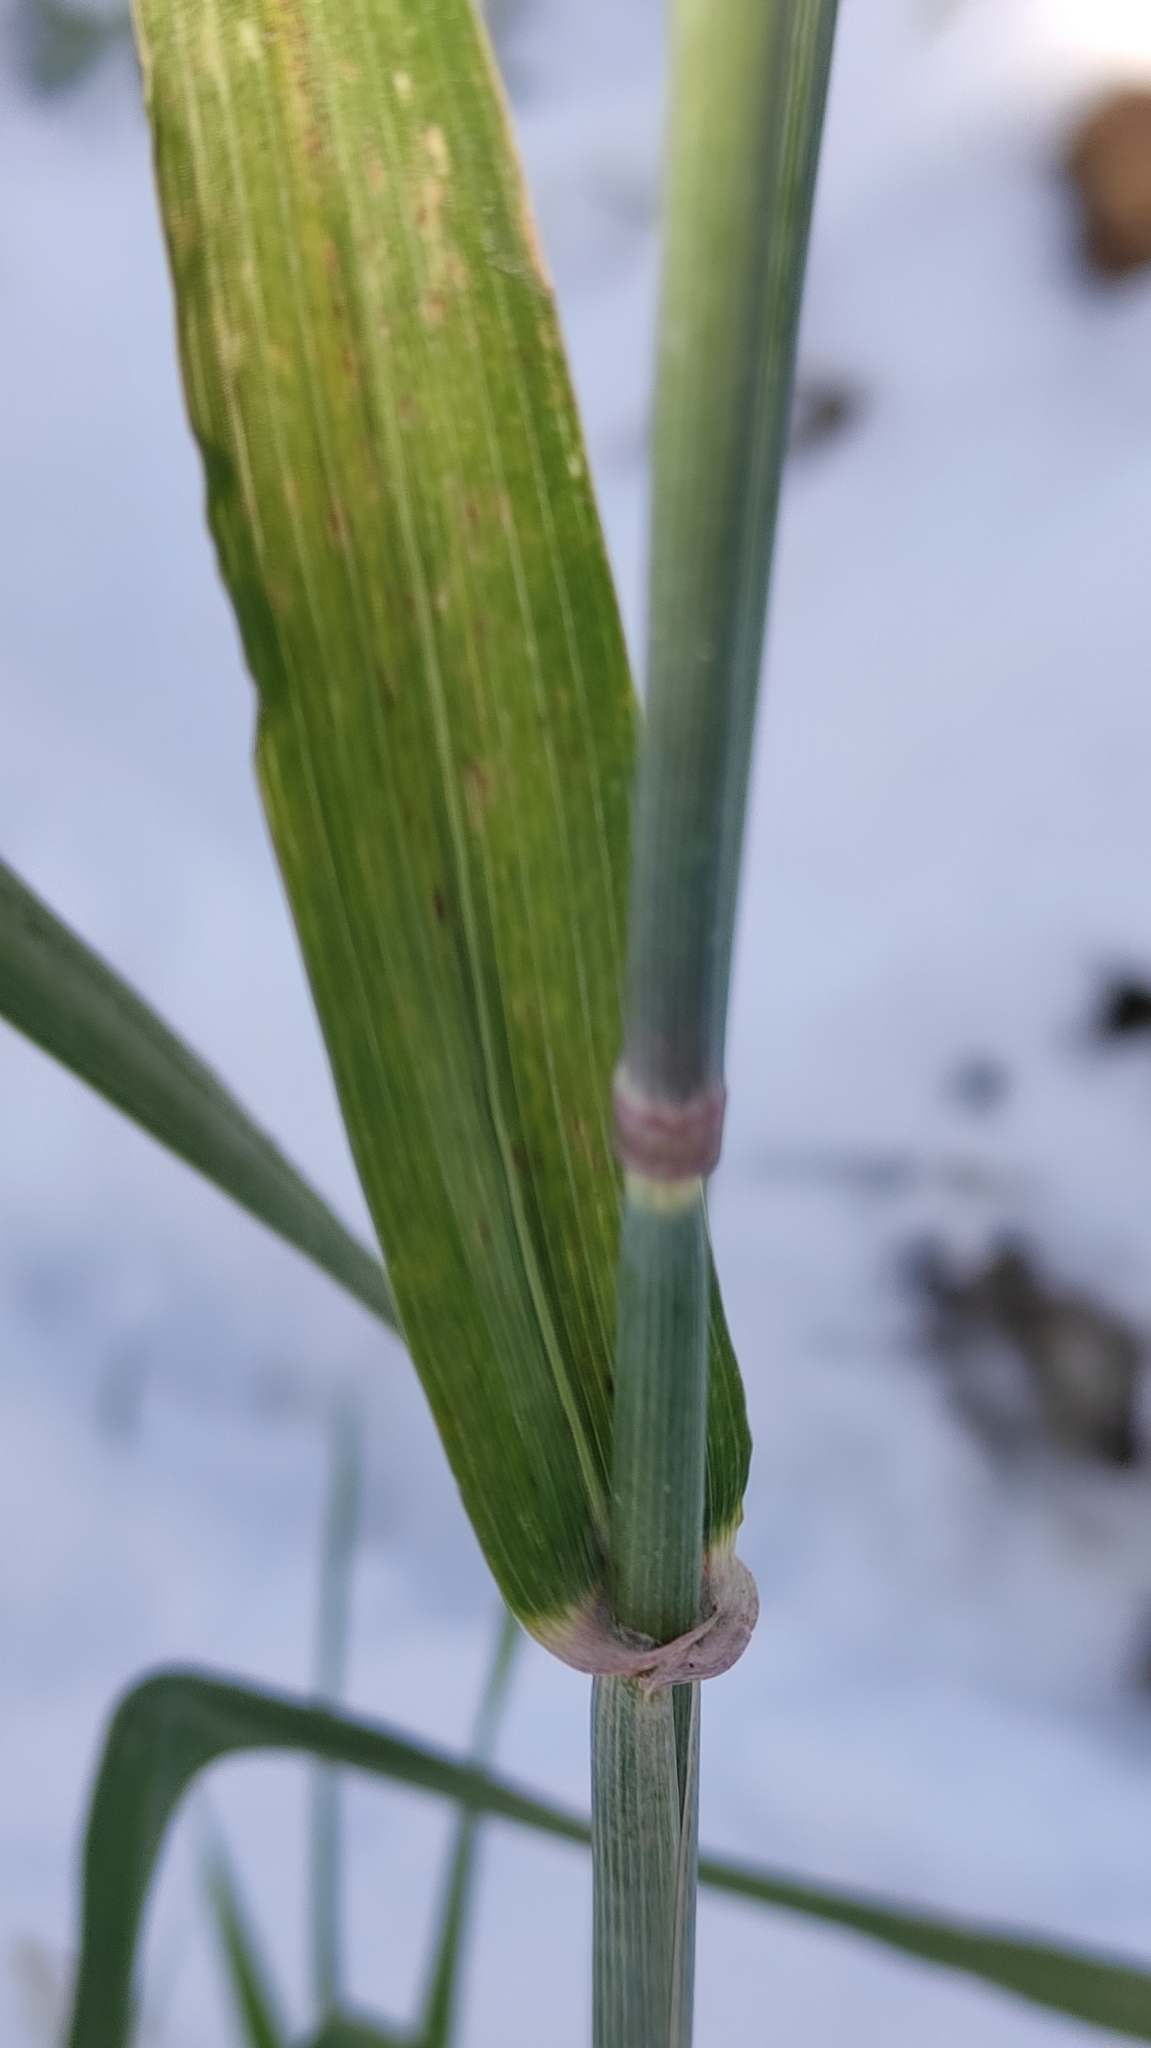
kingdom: Plantae
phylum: Tracheophyta
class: Liliopsida
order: Poales
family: Poaceae
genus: Hordeum
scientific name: Hordeum vulgare
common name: Common barley
